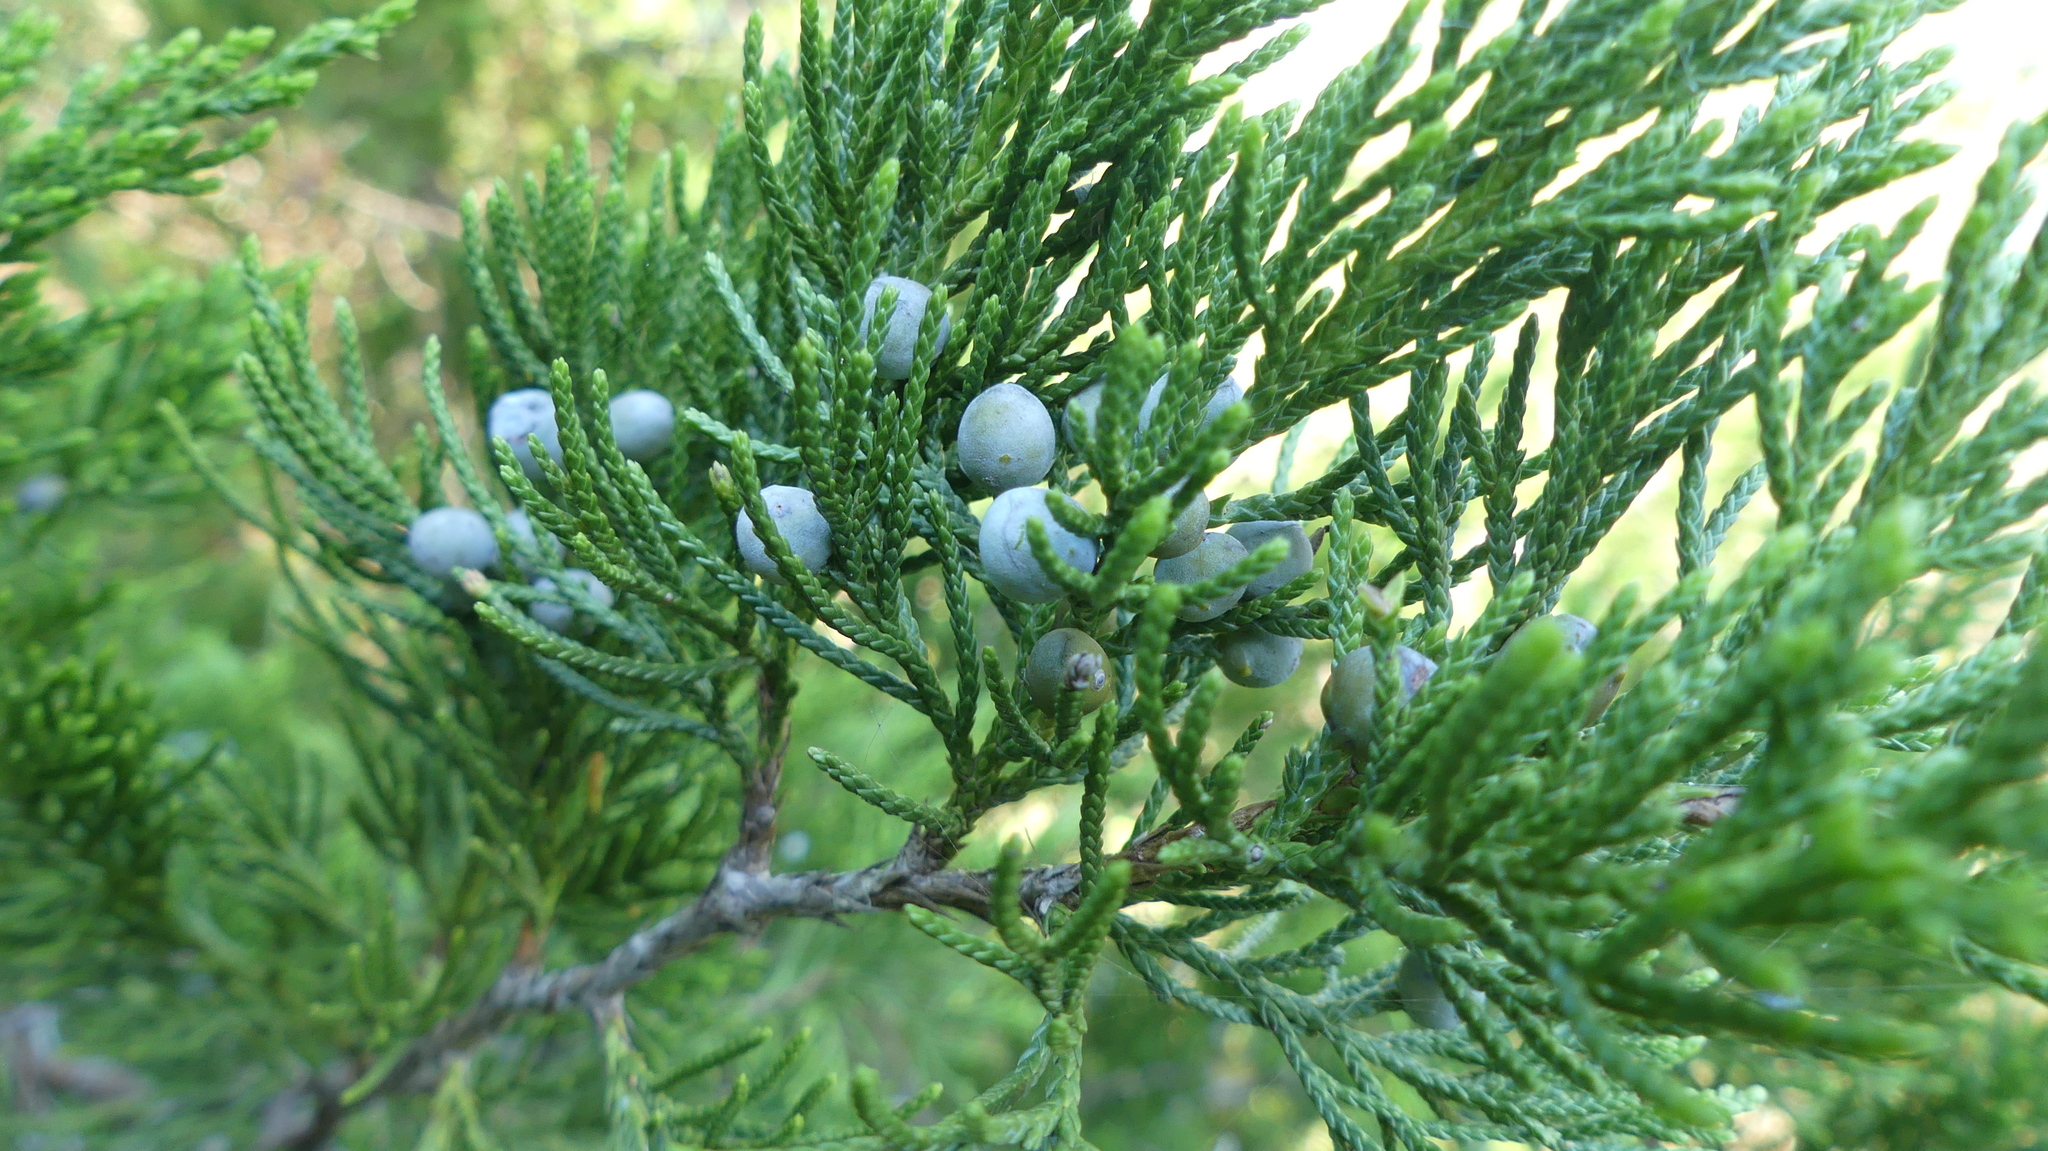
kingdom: Plantae
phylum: Tracheophyta
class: Pinopsida
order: Pinales
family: Cupressaceae
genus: Juniperus
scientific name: Juniperus virginiana
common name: Red juniper
